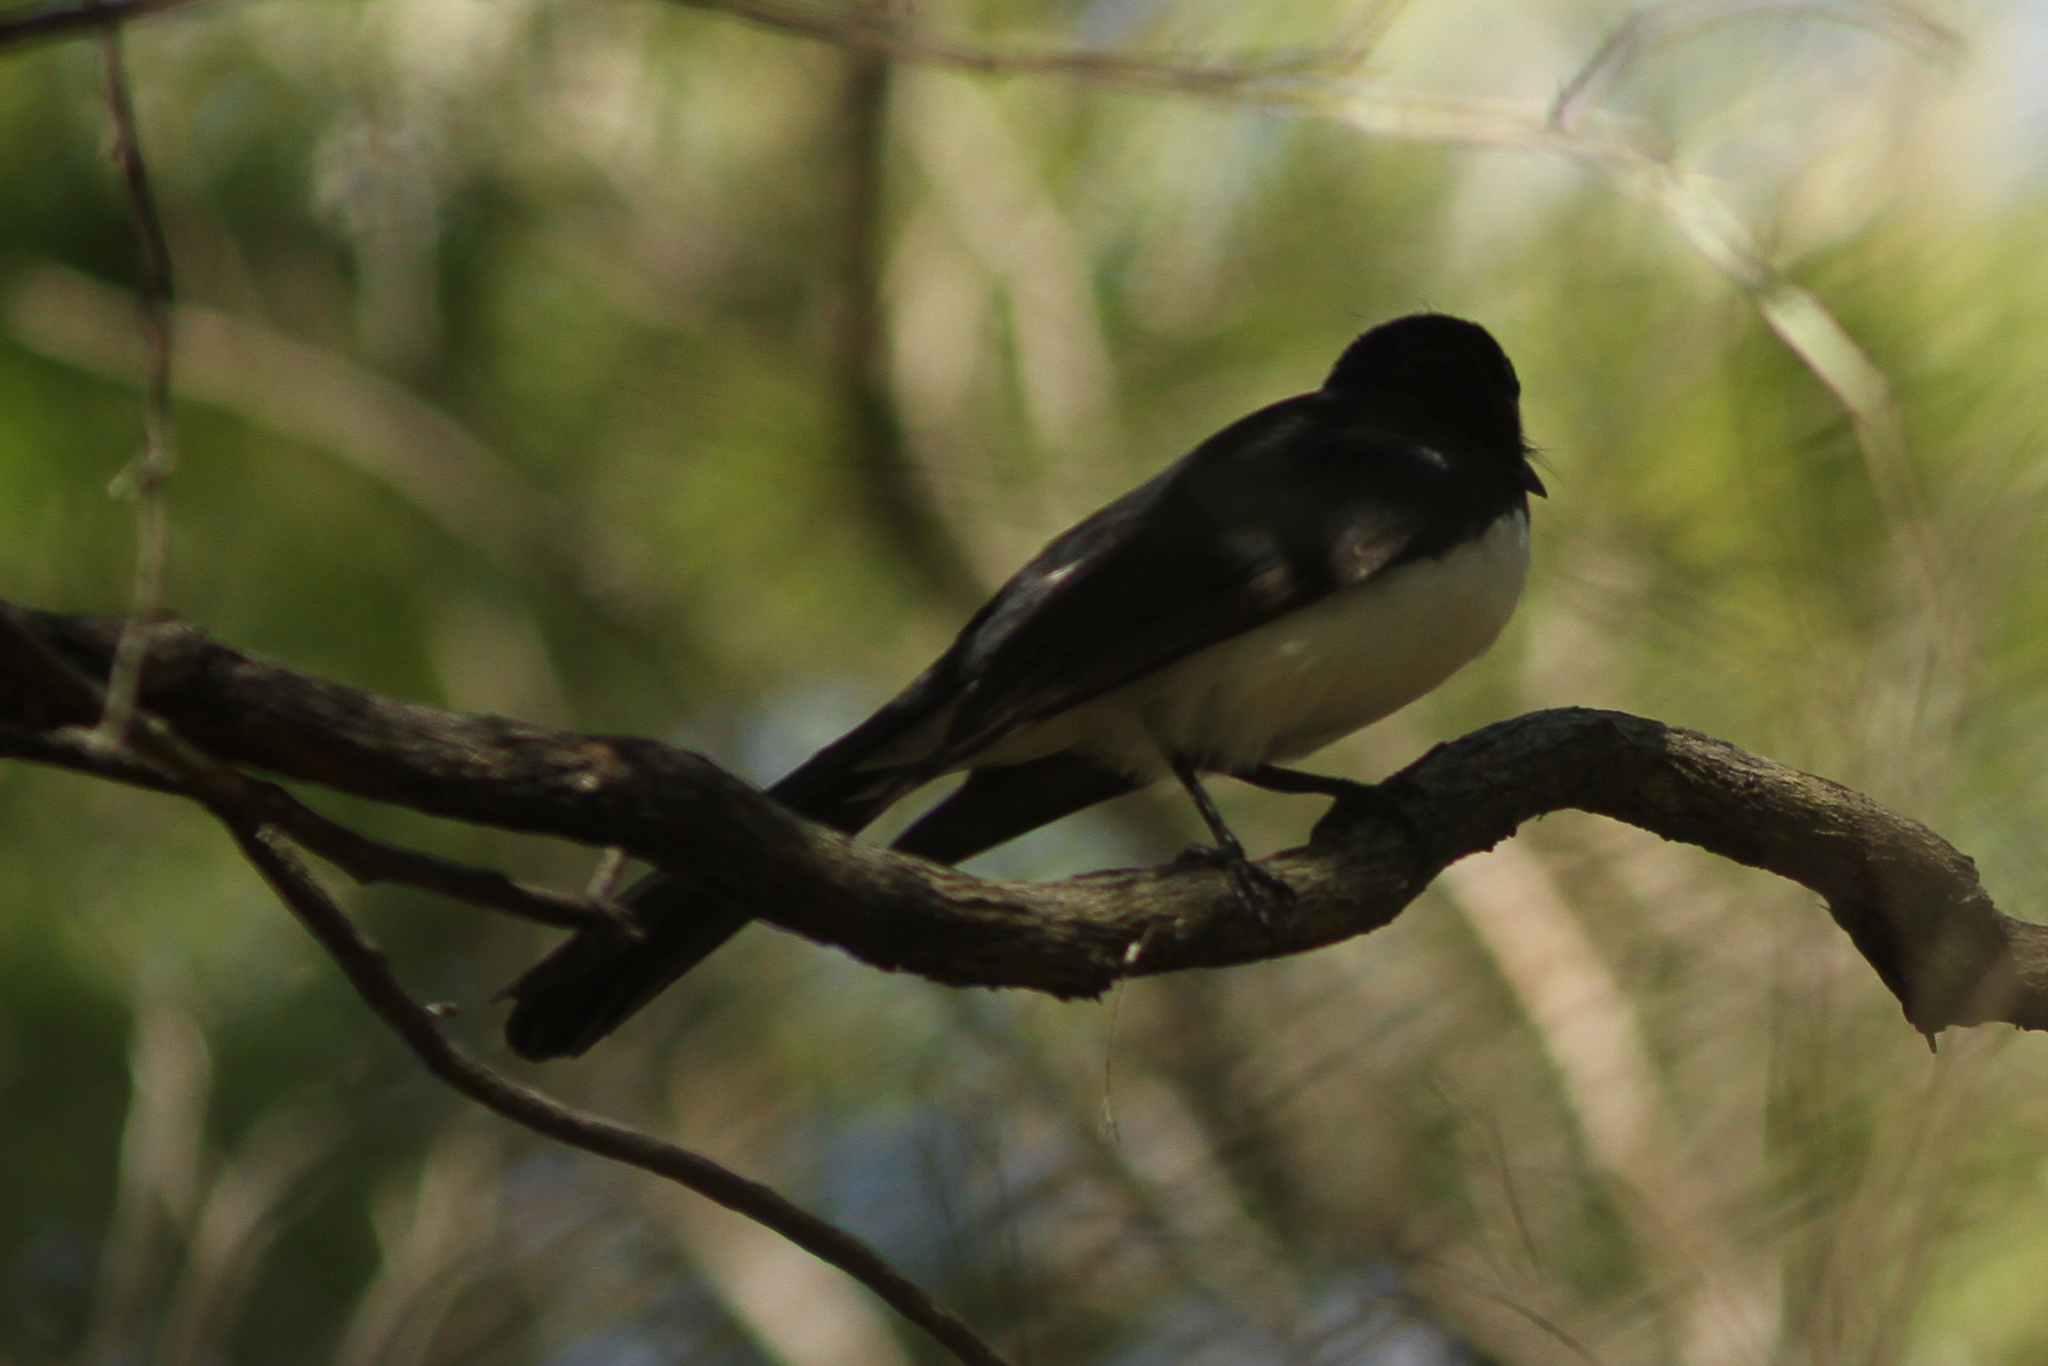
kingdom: Animalia
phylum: Chordata
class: Aves
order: Passeriformes
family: Rhipiduridae
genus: Rhipidura
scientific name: Rhipidura leucophrys
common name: Willie wagtail
